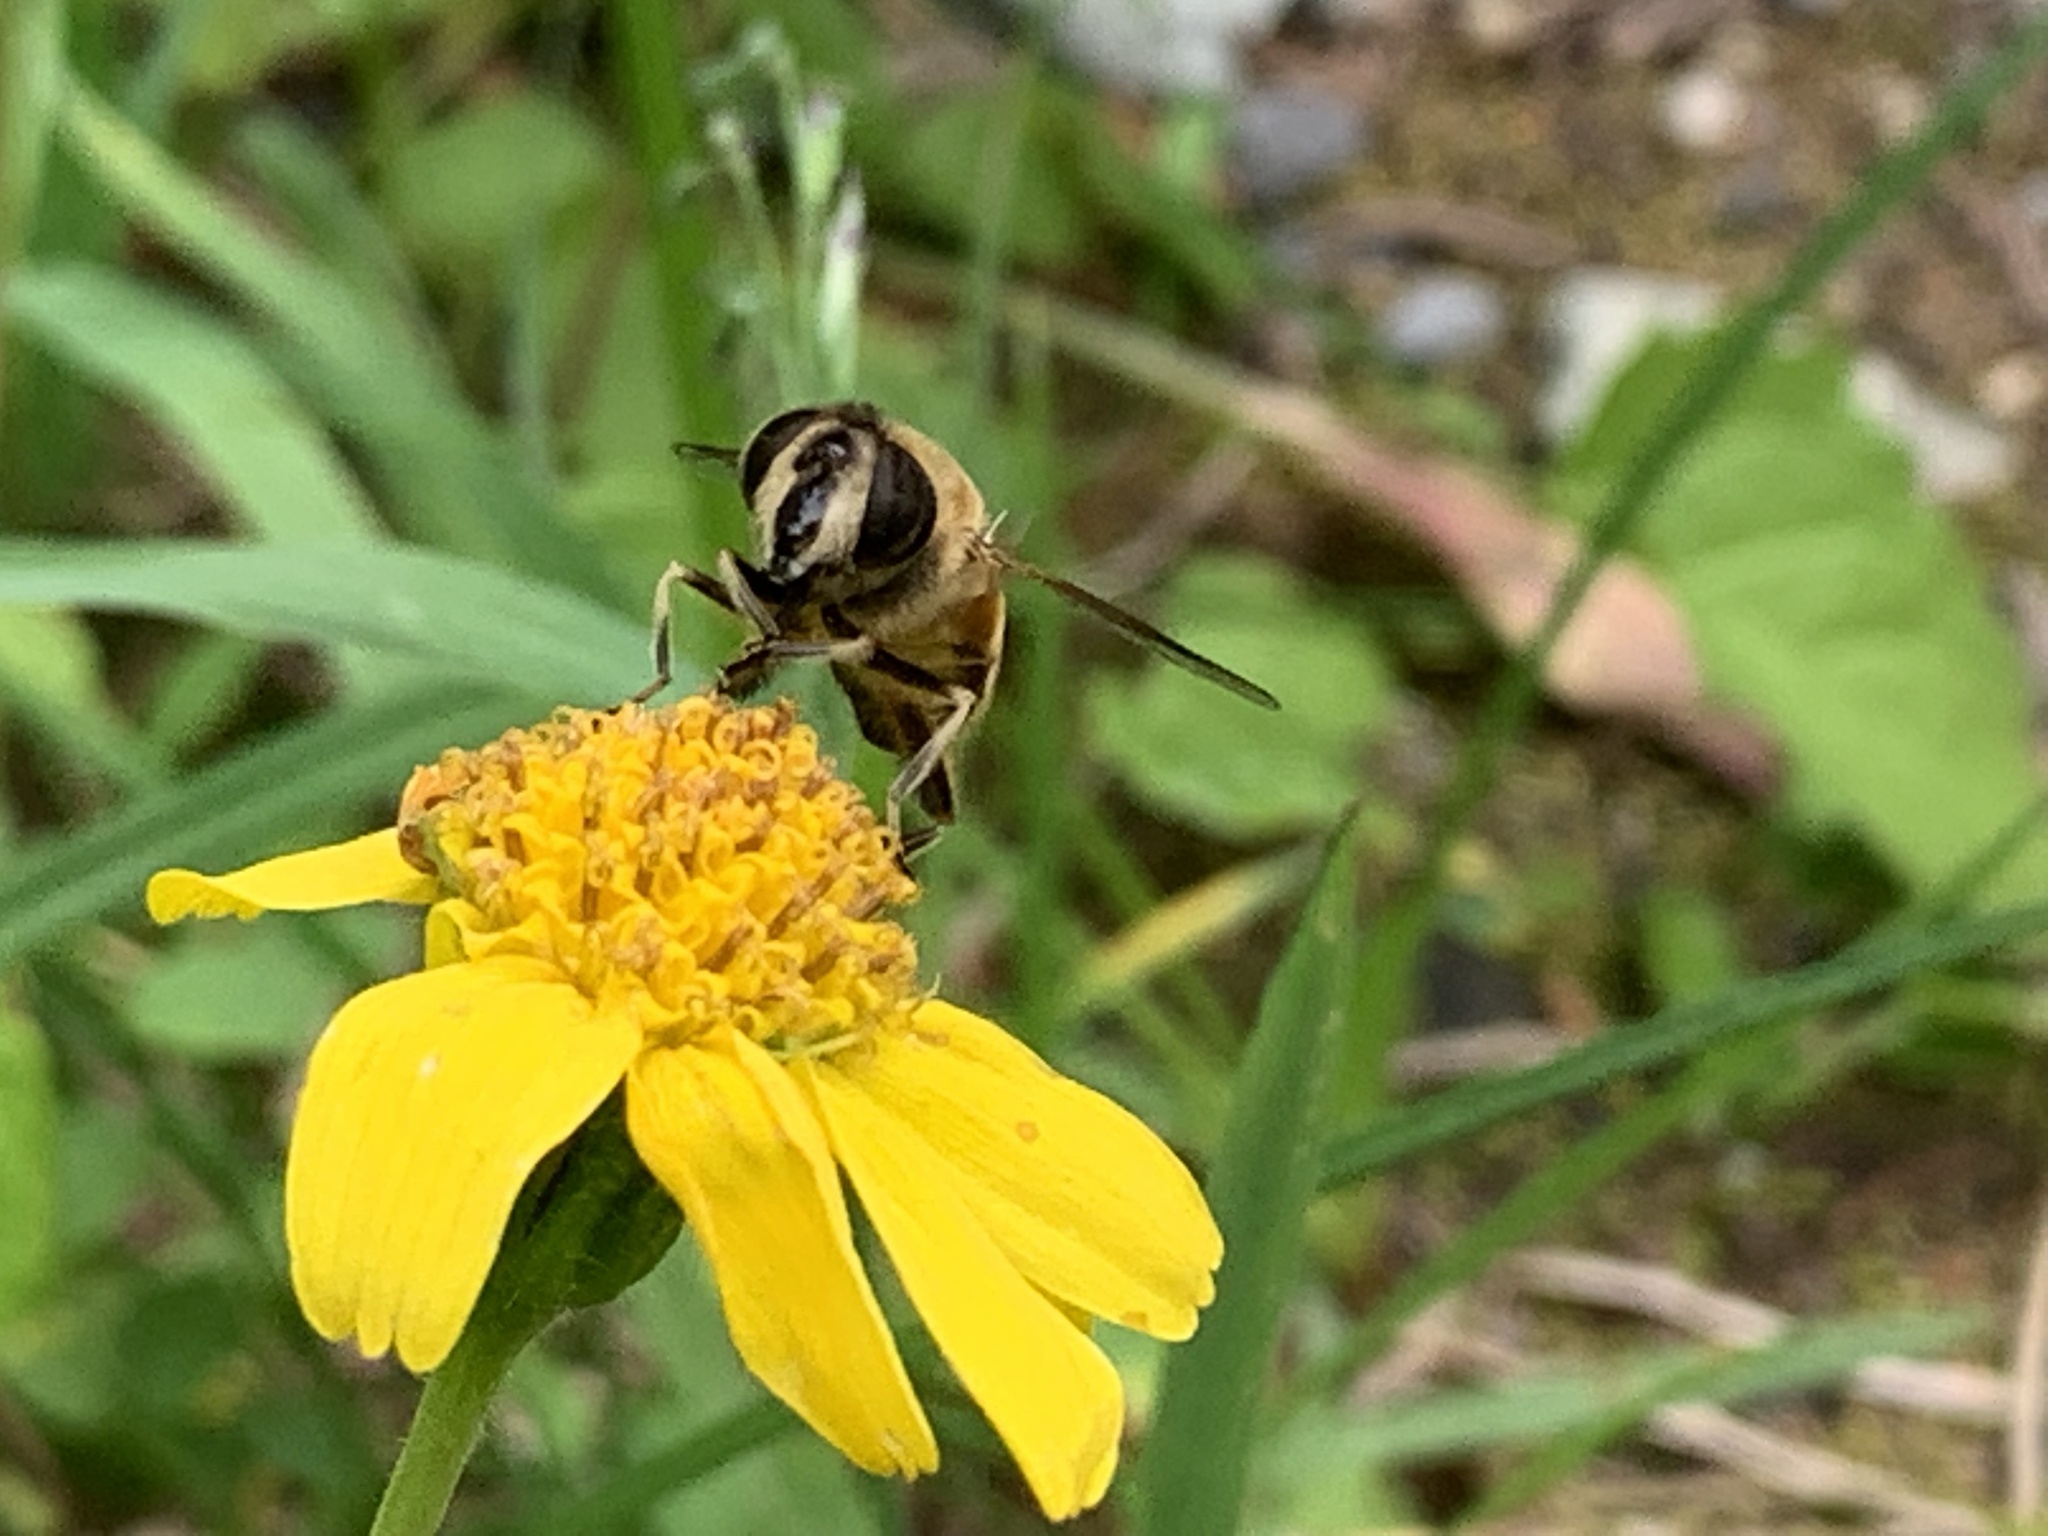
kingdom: Animalia
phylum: Arthropoda
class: Insecta
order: Diptera
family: Syrphidae
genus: Eristalis
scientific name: Eristalis tenax
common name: Drone fly
